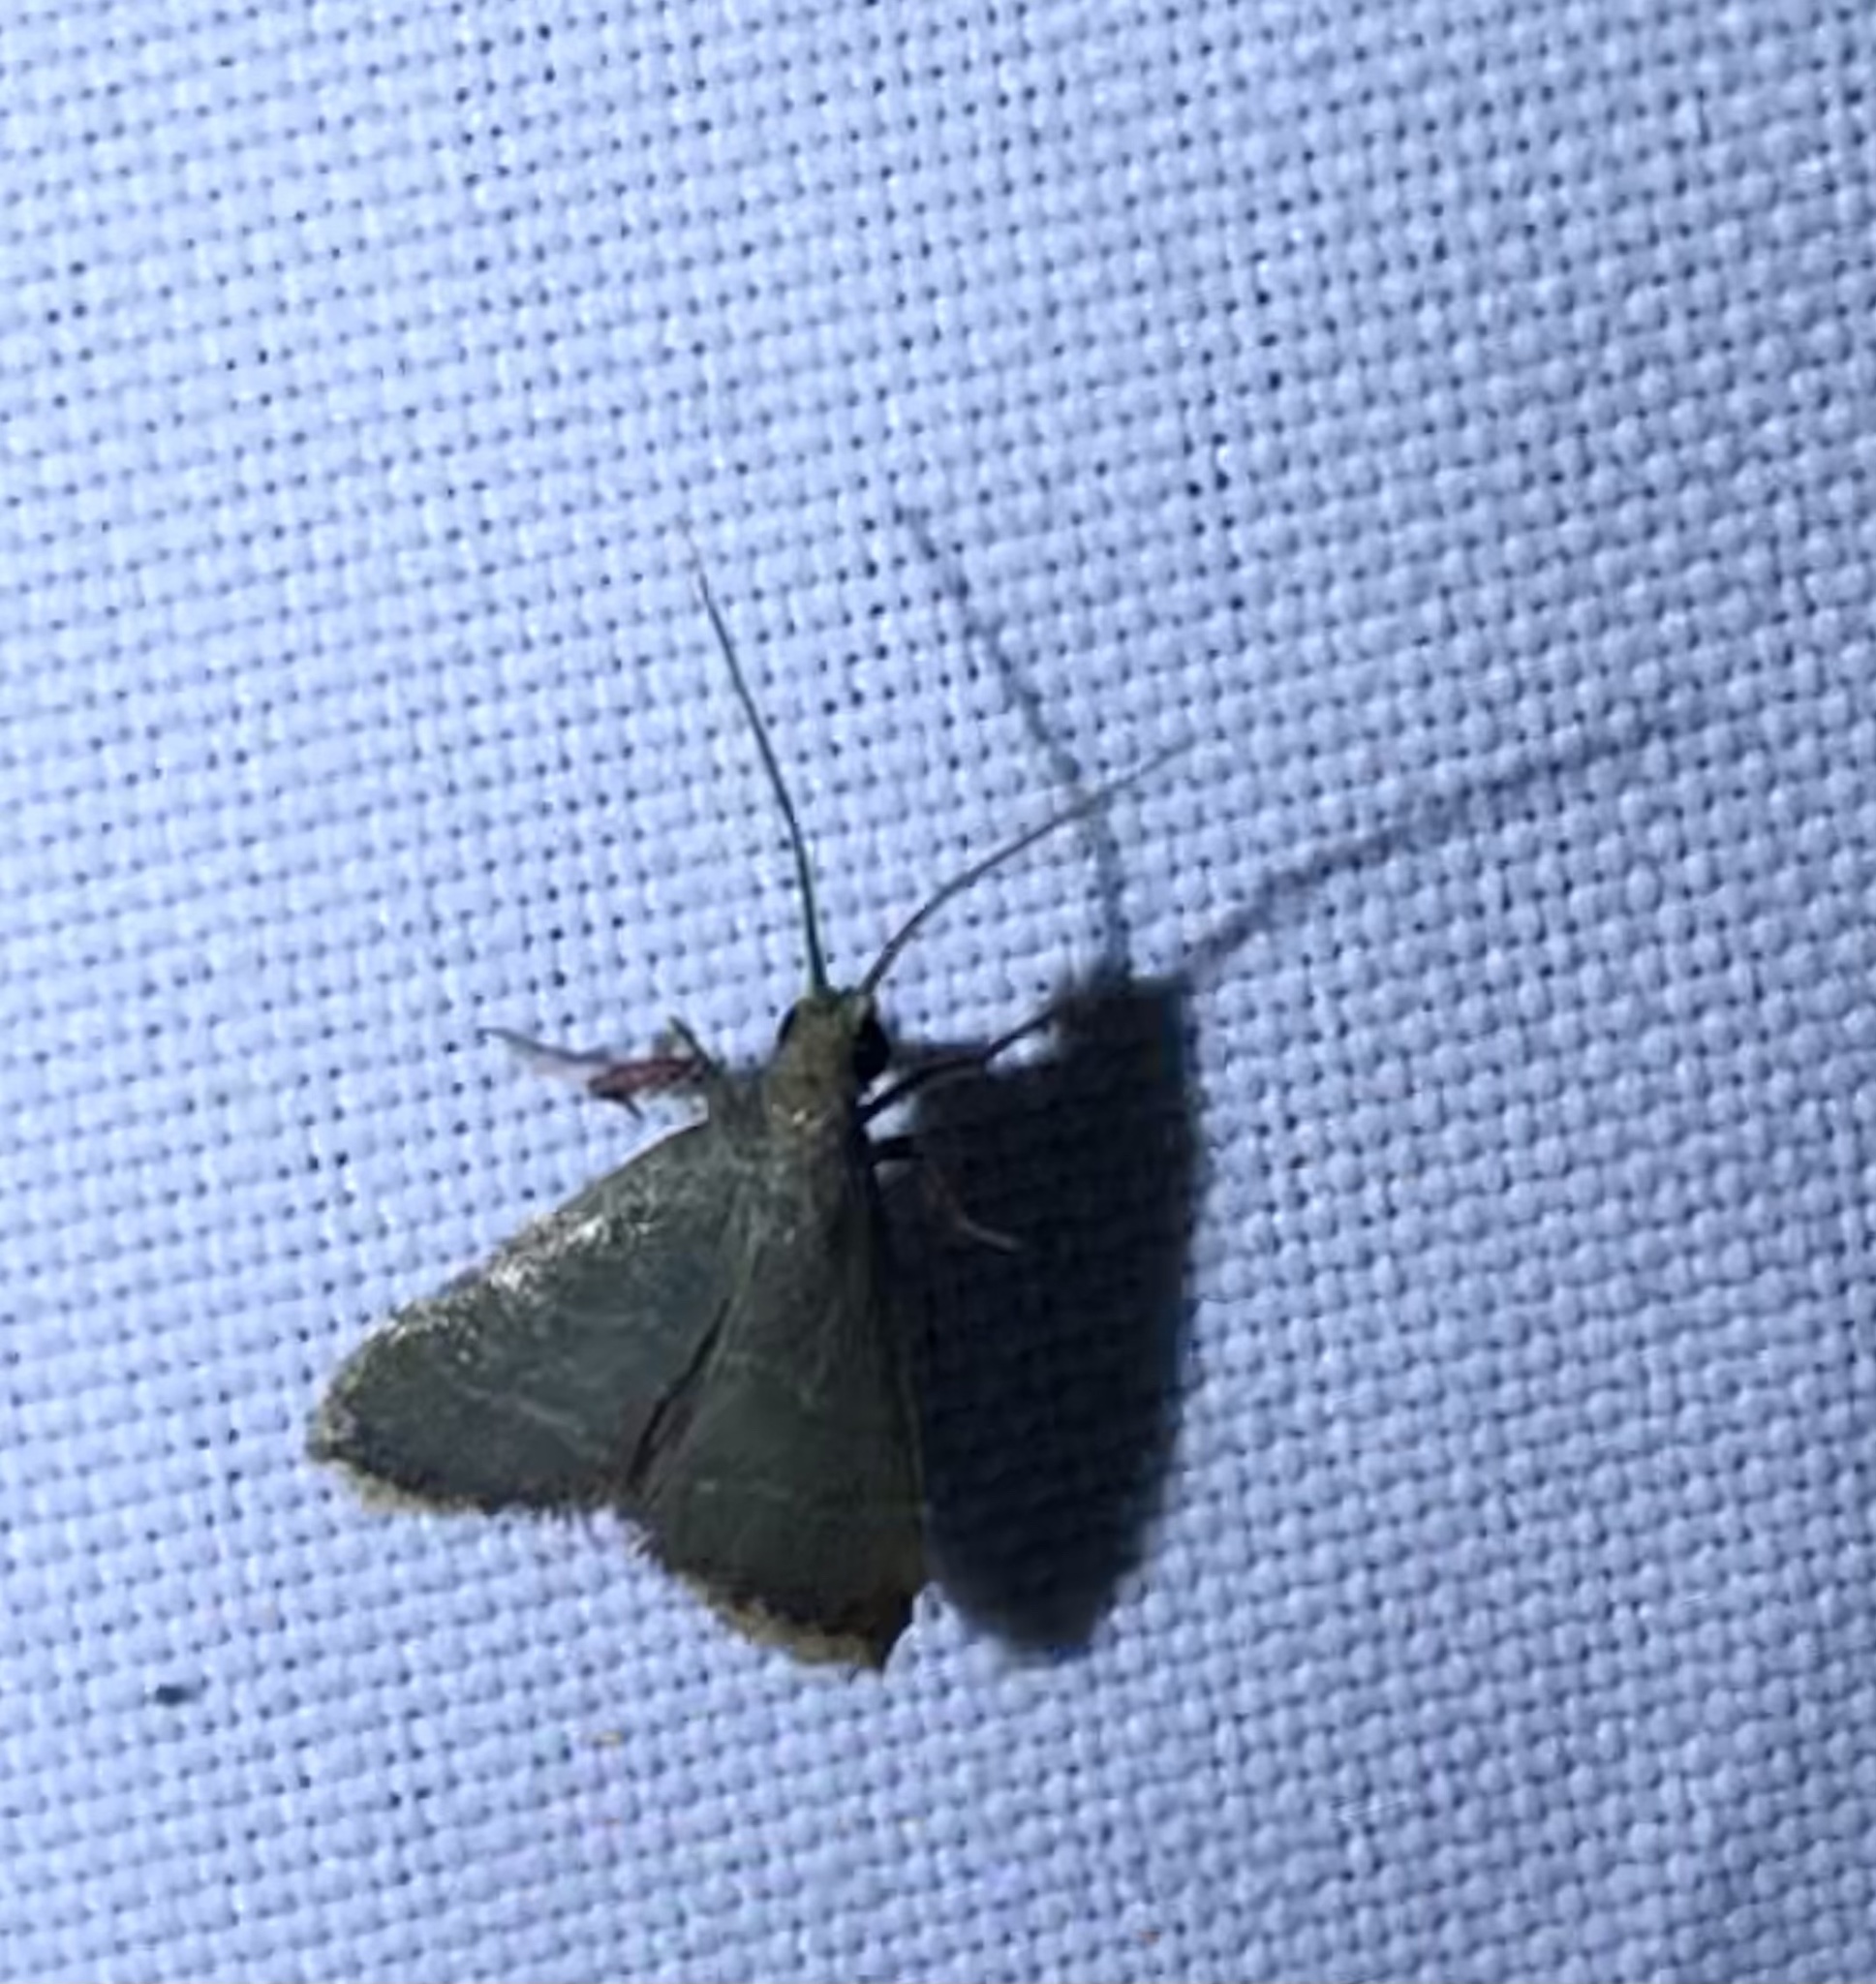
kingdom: Animalia
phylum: Arthropoda
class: Insecta
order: Lepidoptera
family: Pyralidae
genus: Arta
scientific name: Arta olivalis
